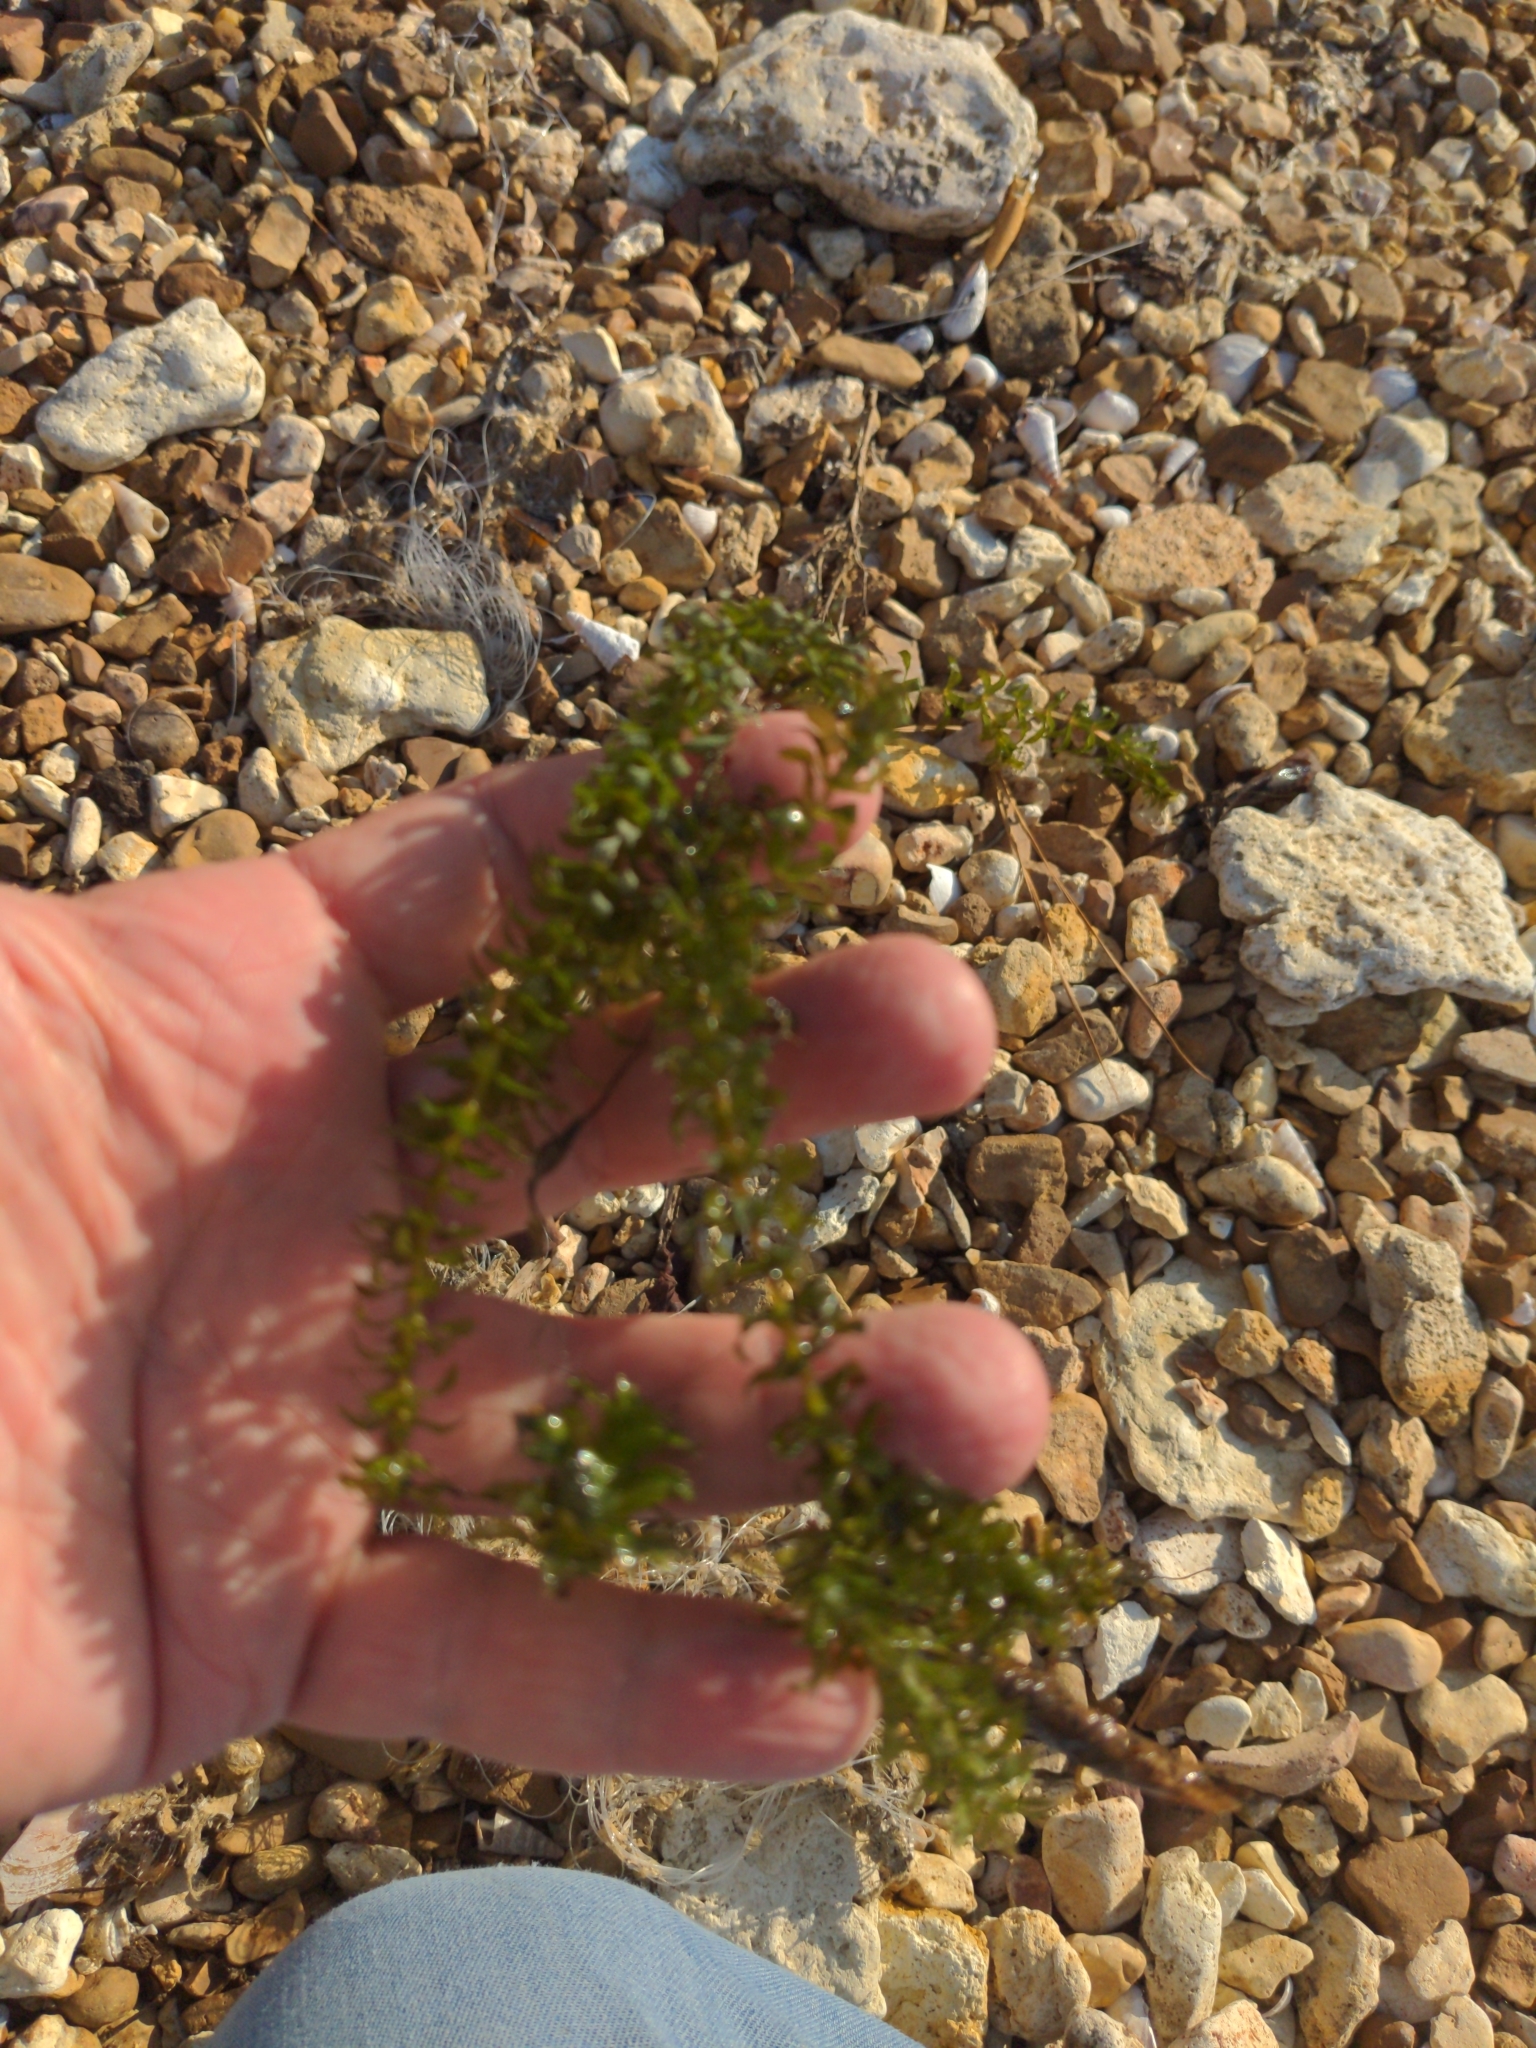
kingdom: Plantae
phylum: Tracheophyta
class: Liliopsida
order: Alismatales
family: Hydrocharitaceae
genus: Hydrilla
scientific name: Hydrilla verticillata
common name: Florida-elodea
